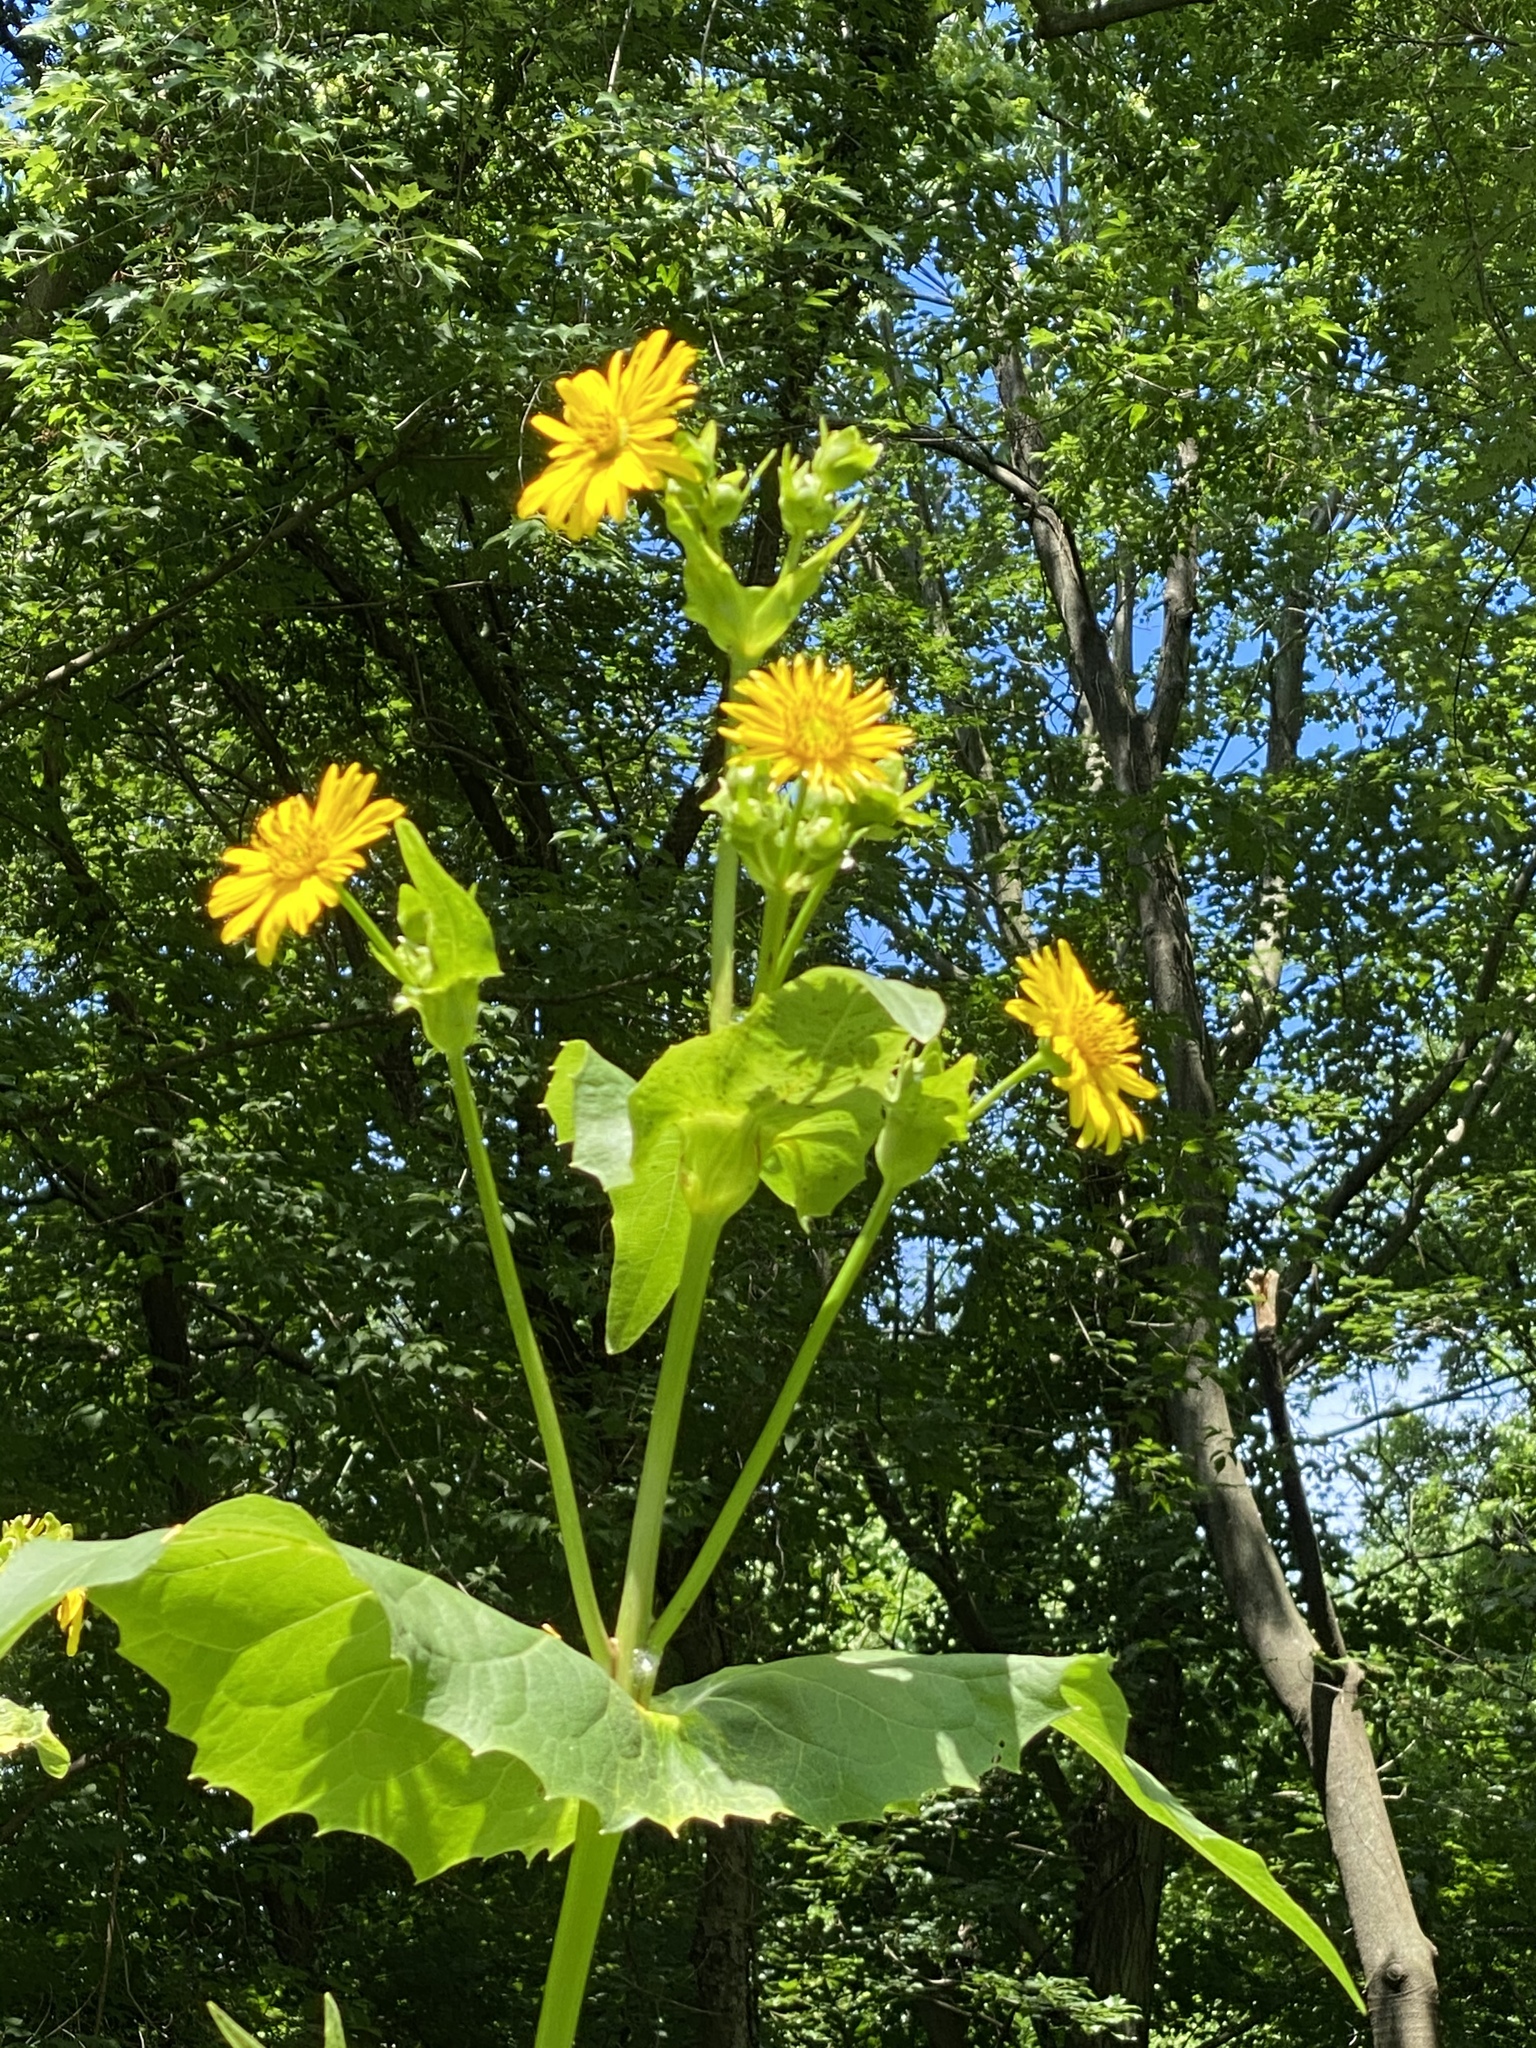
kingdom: Plantae
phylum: Tracheophyta
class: Magnoliopsida
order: Asterales
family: Asteraceae
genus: Silphium
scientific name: Silphium perfoliatum
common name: Cup-plant
